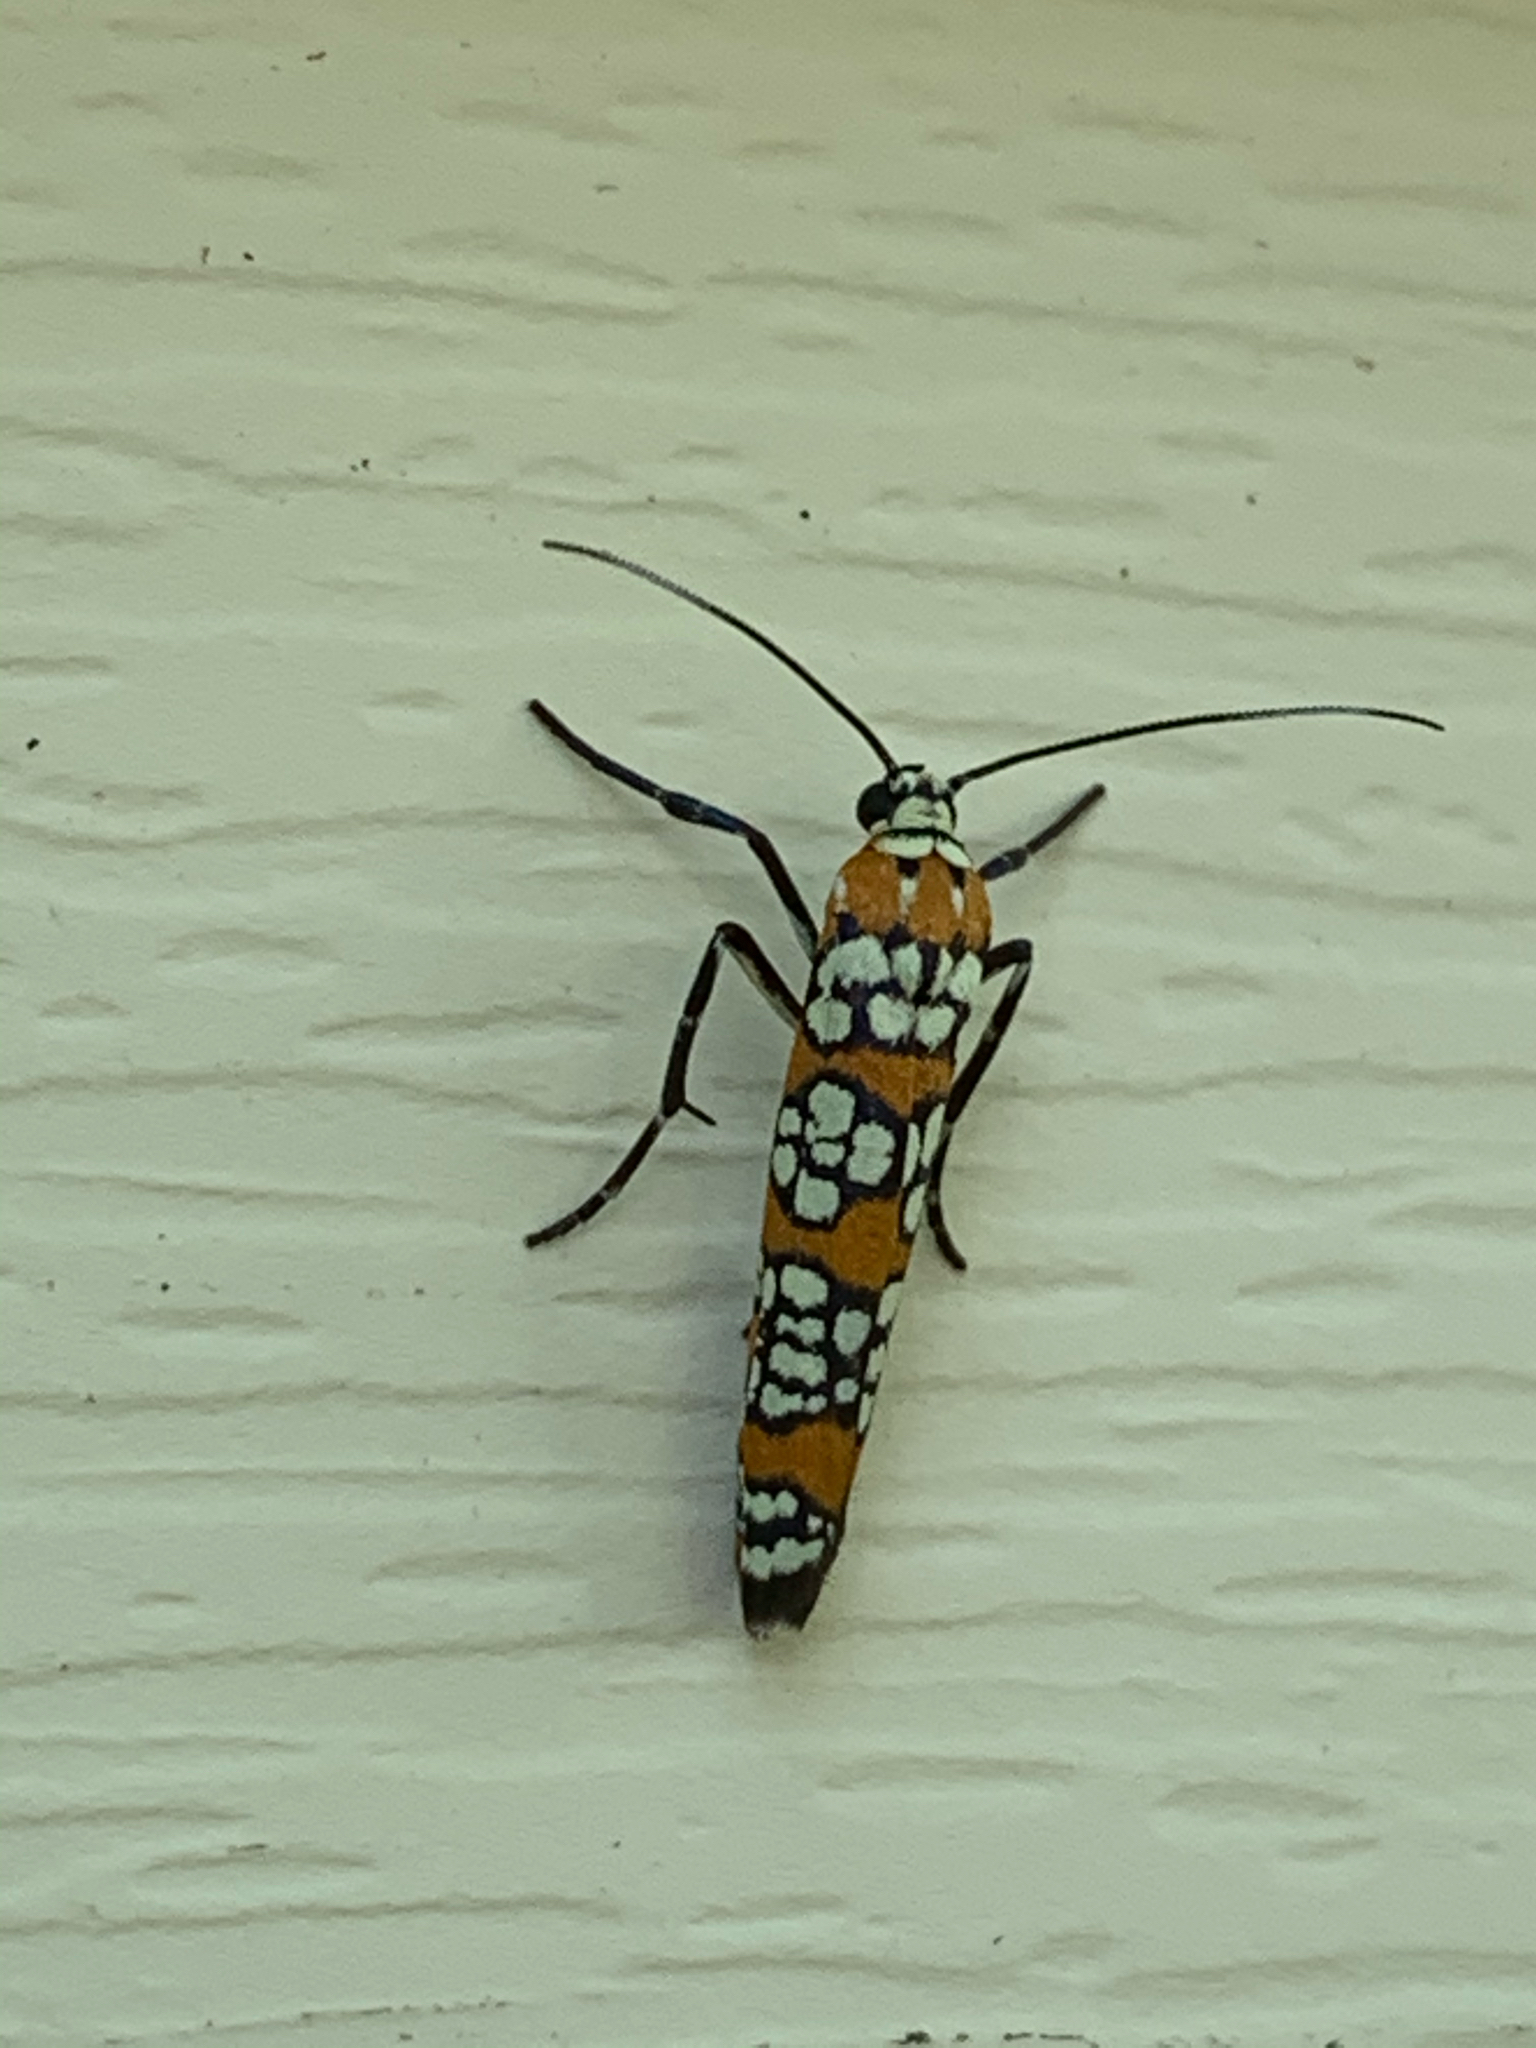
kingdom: Animalia
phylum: Arthropoda
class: Insecta
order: Lepidoptera
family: Attevidae
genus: Atteva
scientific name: Atteva punctella
